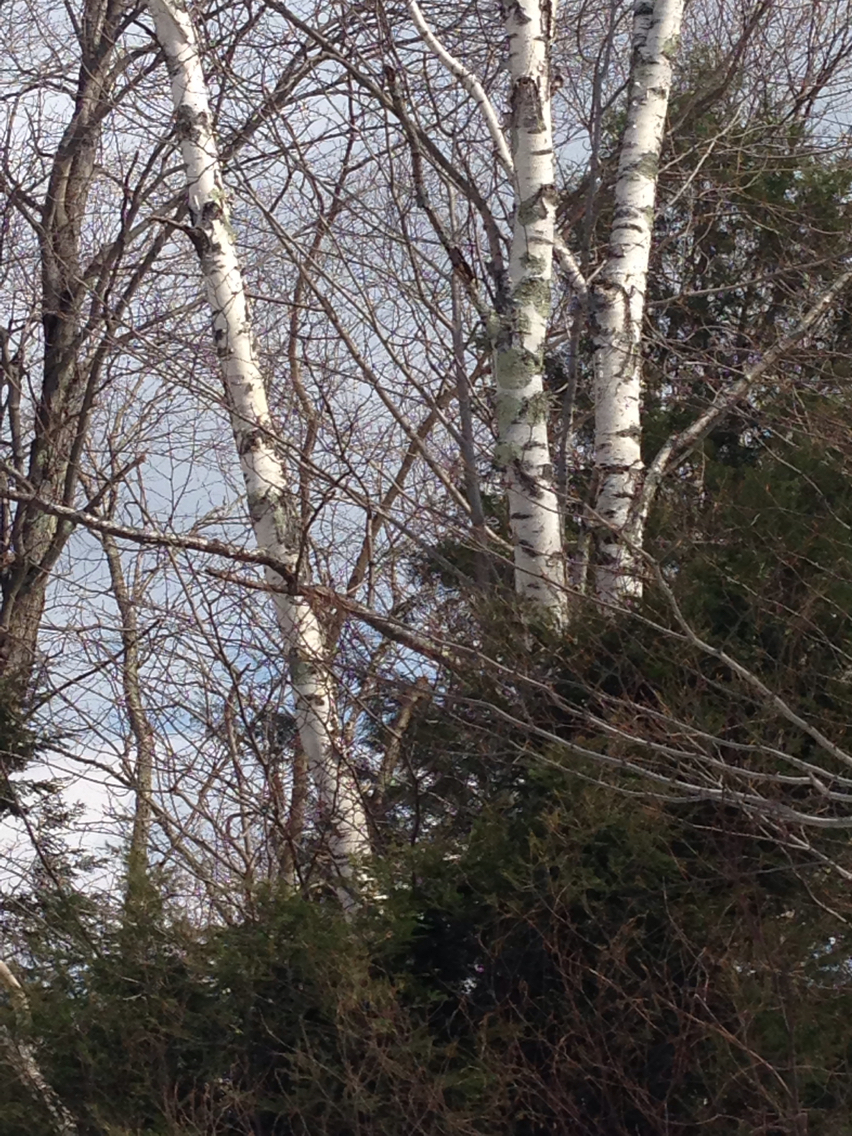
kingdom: Plantae
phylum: Tracheophyta
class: Magnoliopsida
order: Fagales
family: Betulaceae
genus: Betula
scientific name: Betula papyrifera
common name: Paper birch
